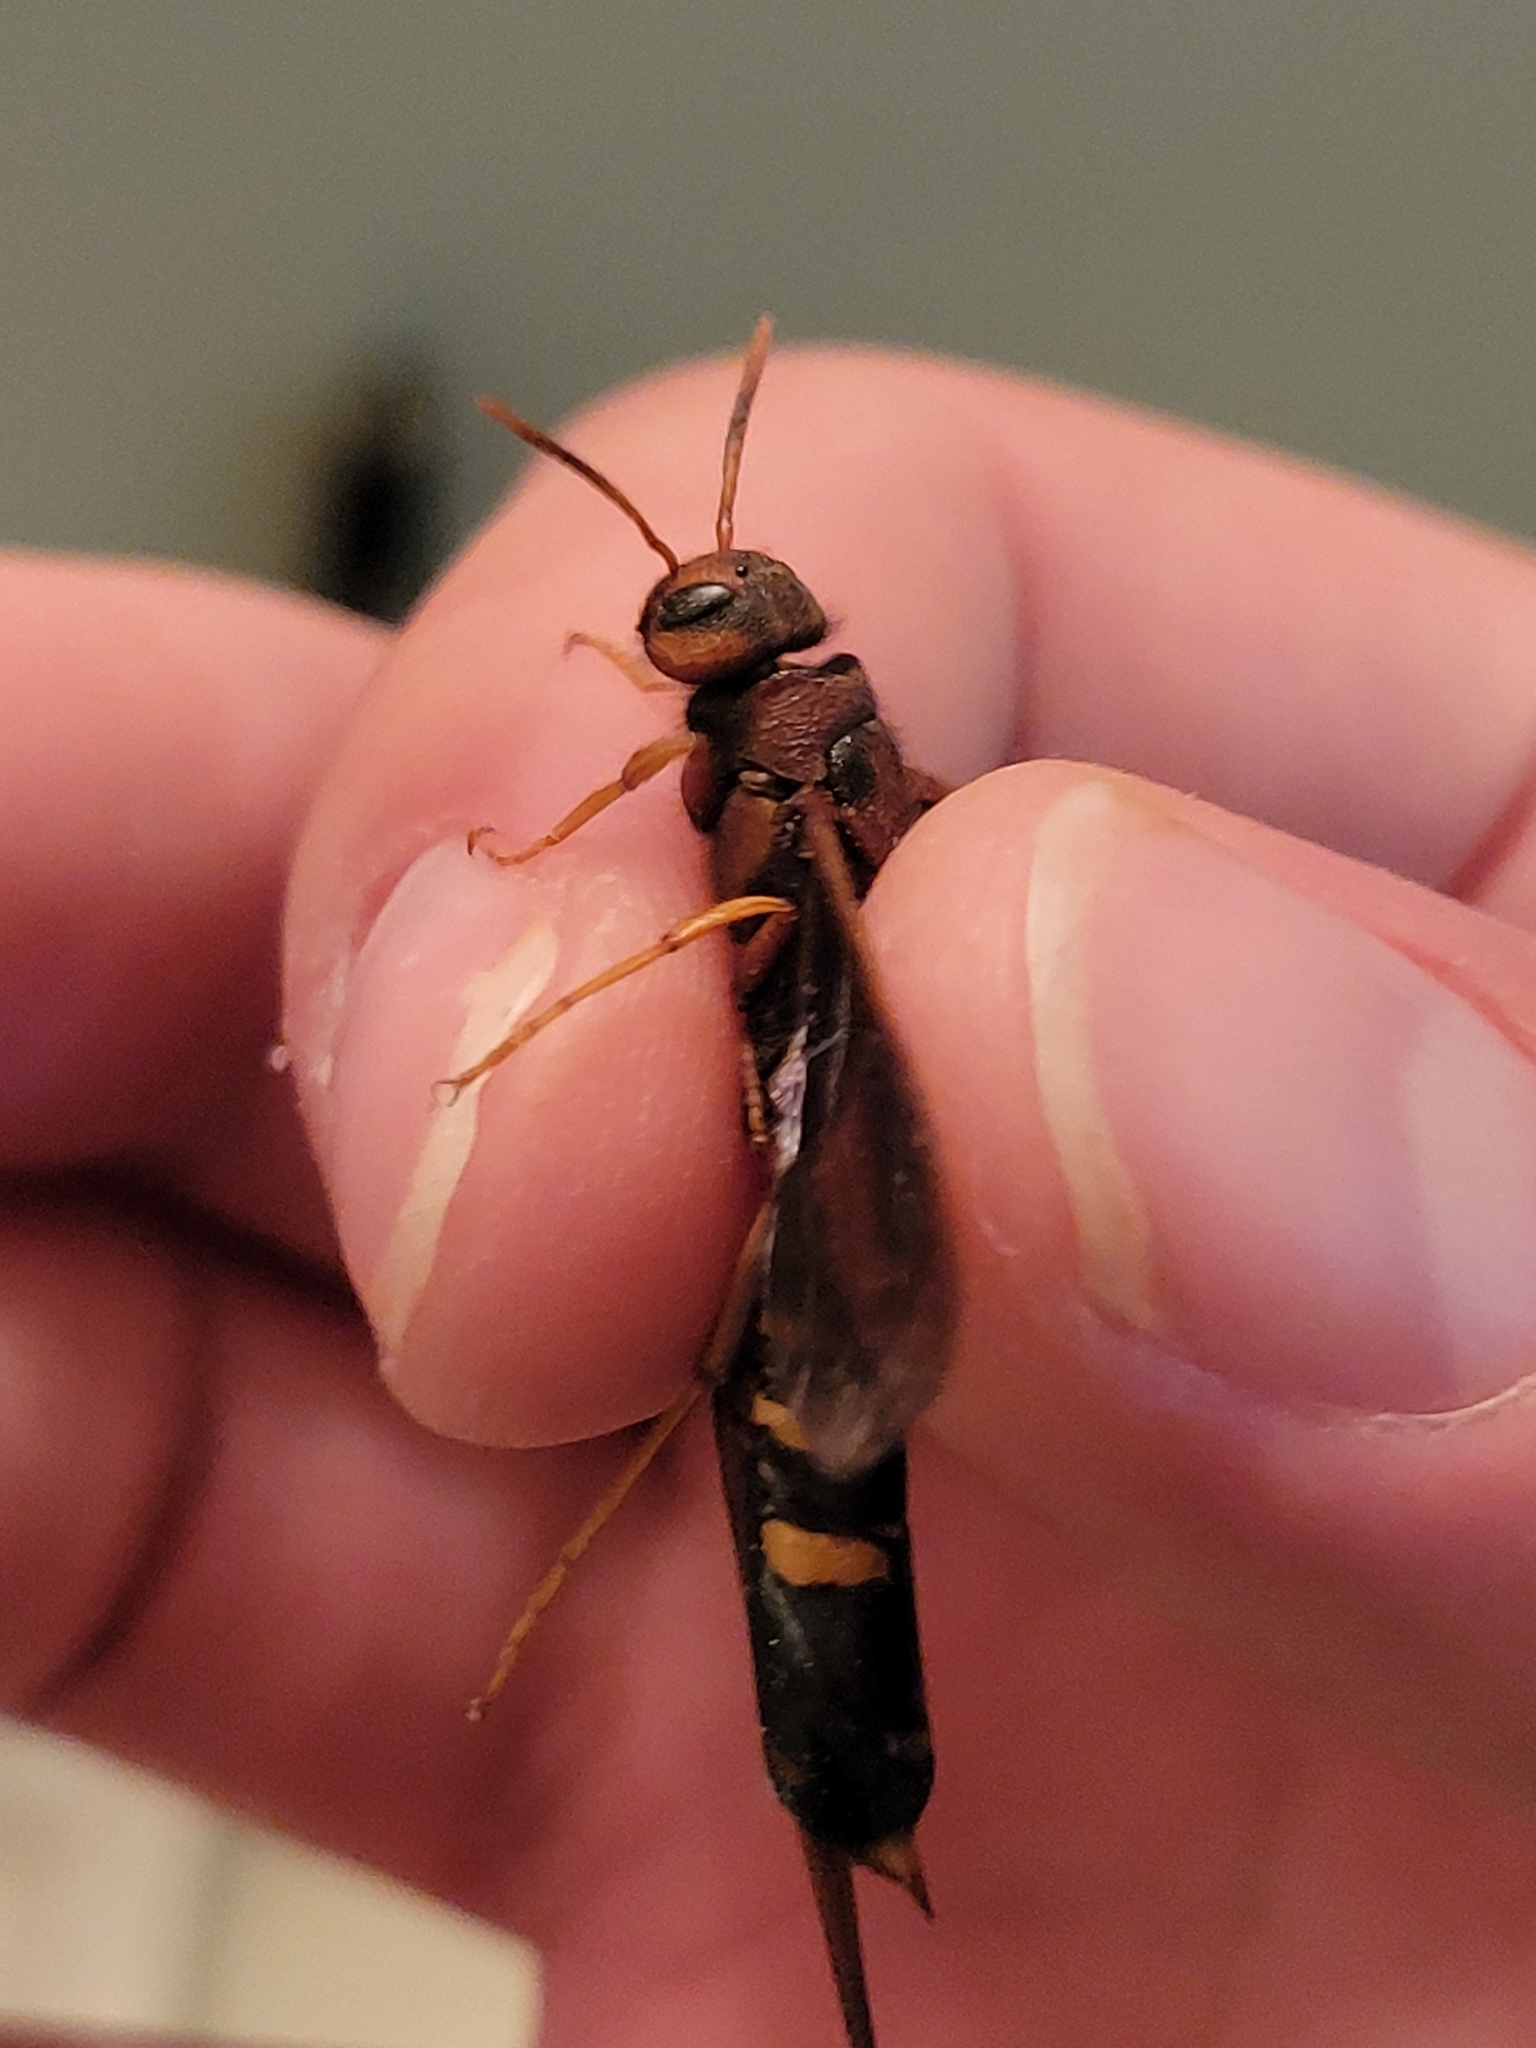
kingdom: Animalia
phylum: Arthropoda
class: Insecta
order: Hymenoptera
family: Siricidae
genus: Tremex
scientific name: Tremex columba
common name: Wasp
